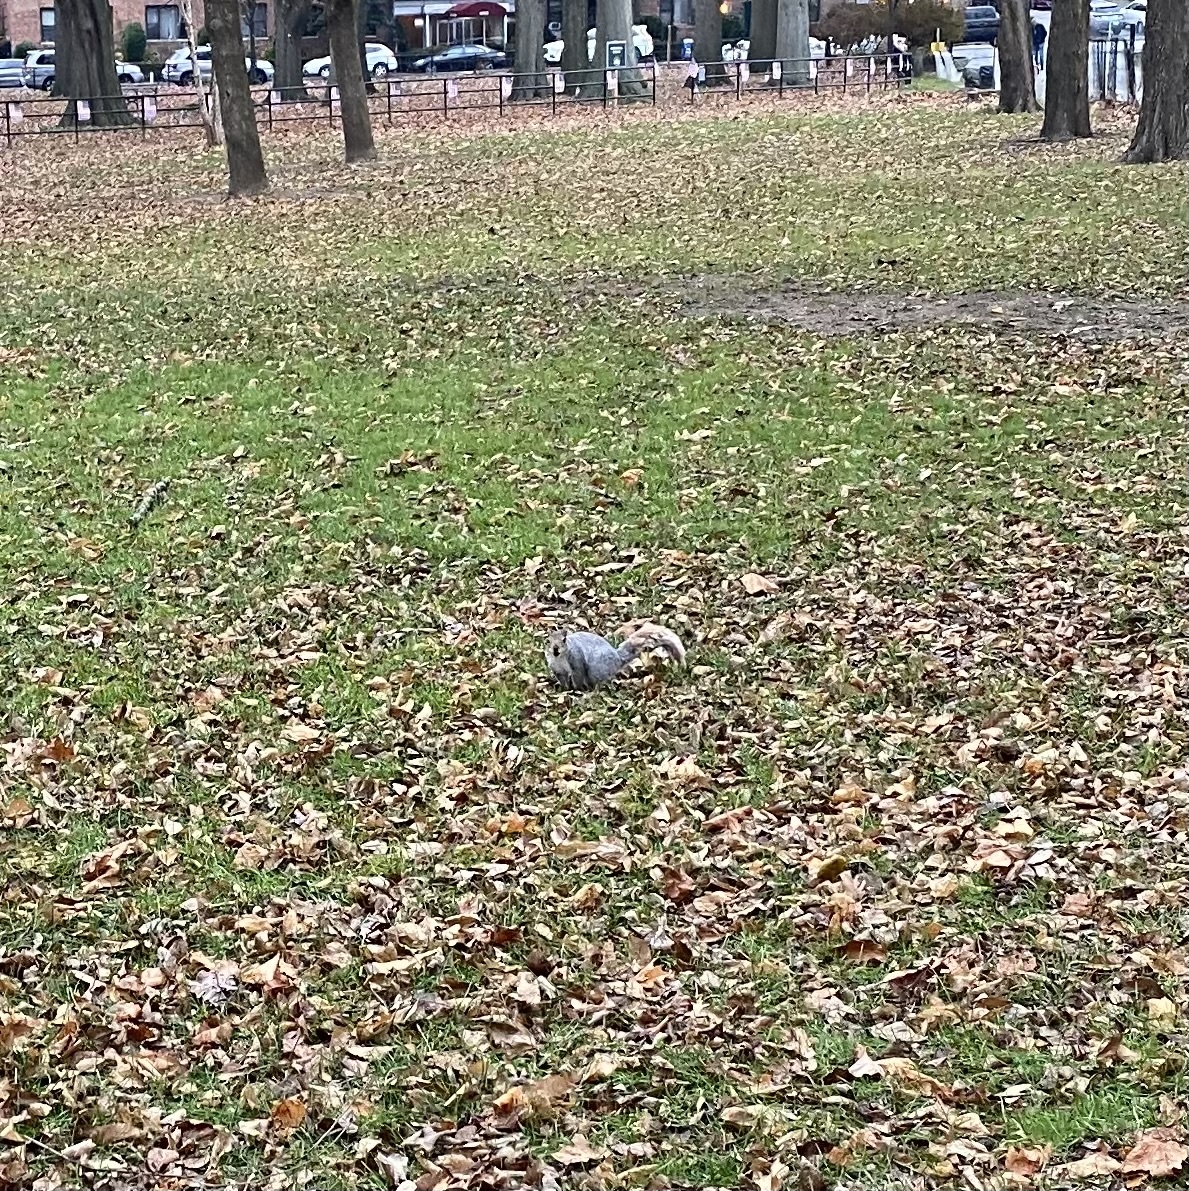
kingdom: Animalia
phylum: Chordata
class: Mammalia
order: Rodentia
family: Sciuridae
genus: Sciurus
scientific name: Sciurus carolinensis
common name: Eastern gray squirrel
